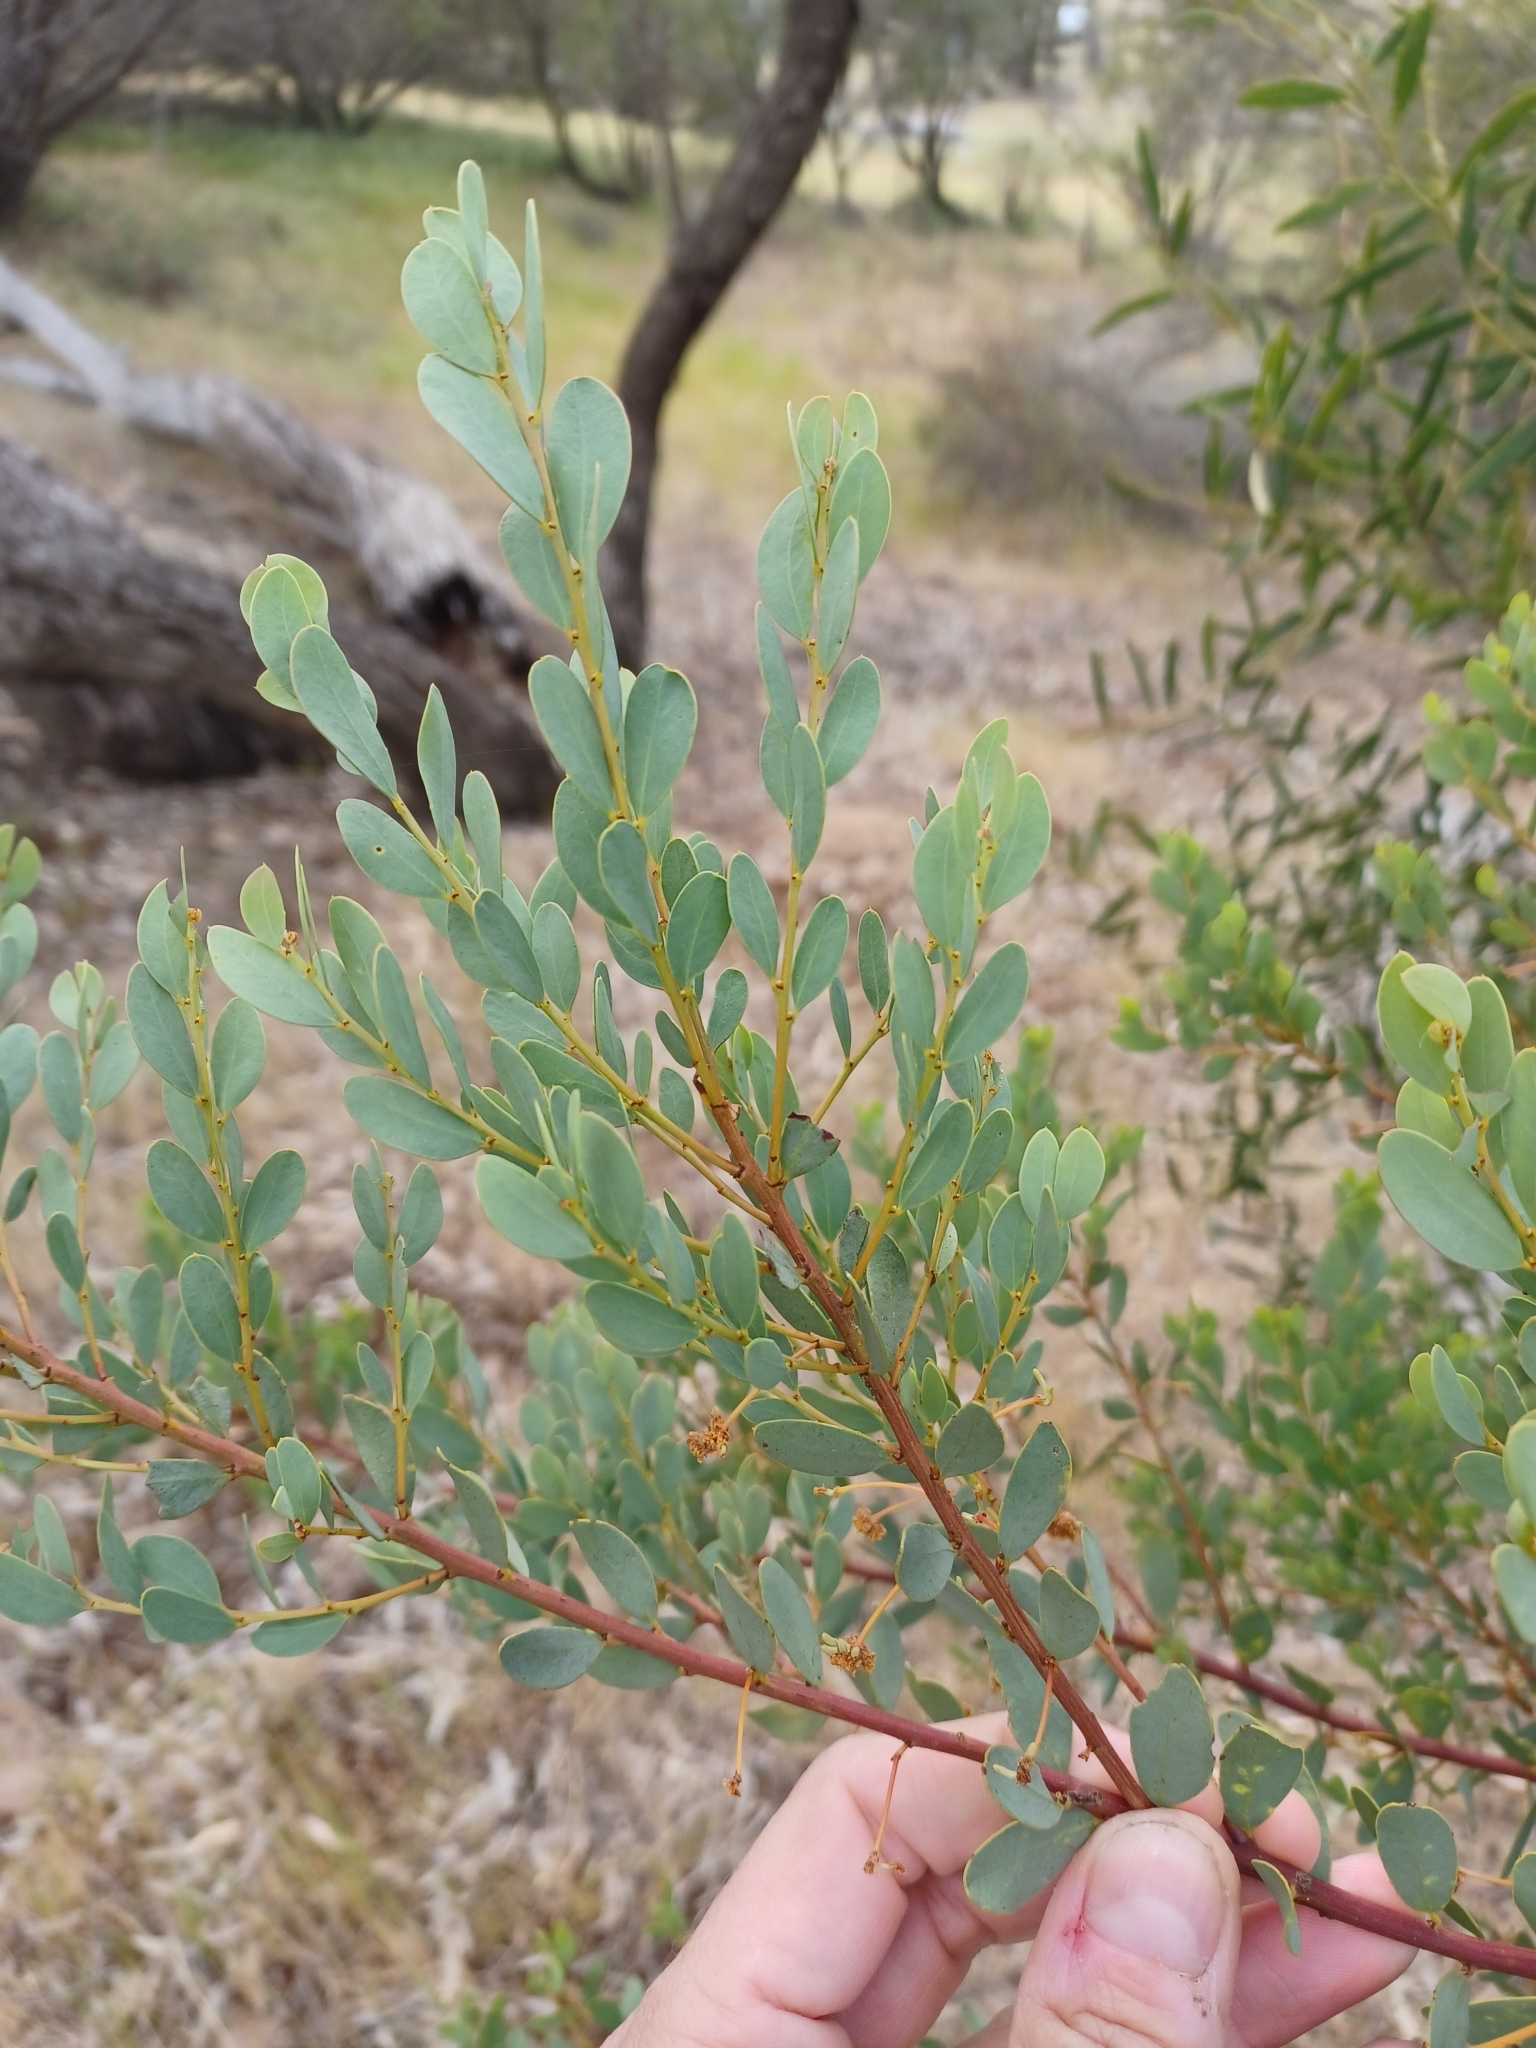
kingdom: Plantae
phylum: Tracheophyta
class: Magnoliopsida
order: Fabales
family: Fabaceae
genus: Acacia
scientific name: Acacia brachybotrya
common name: Grey mulga
